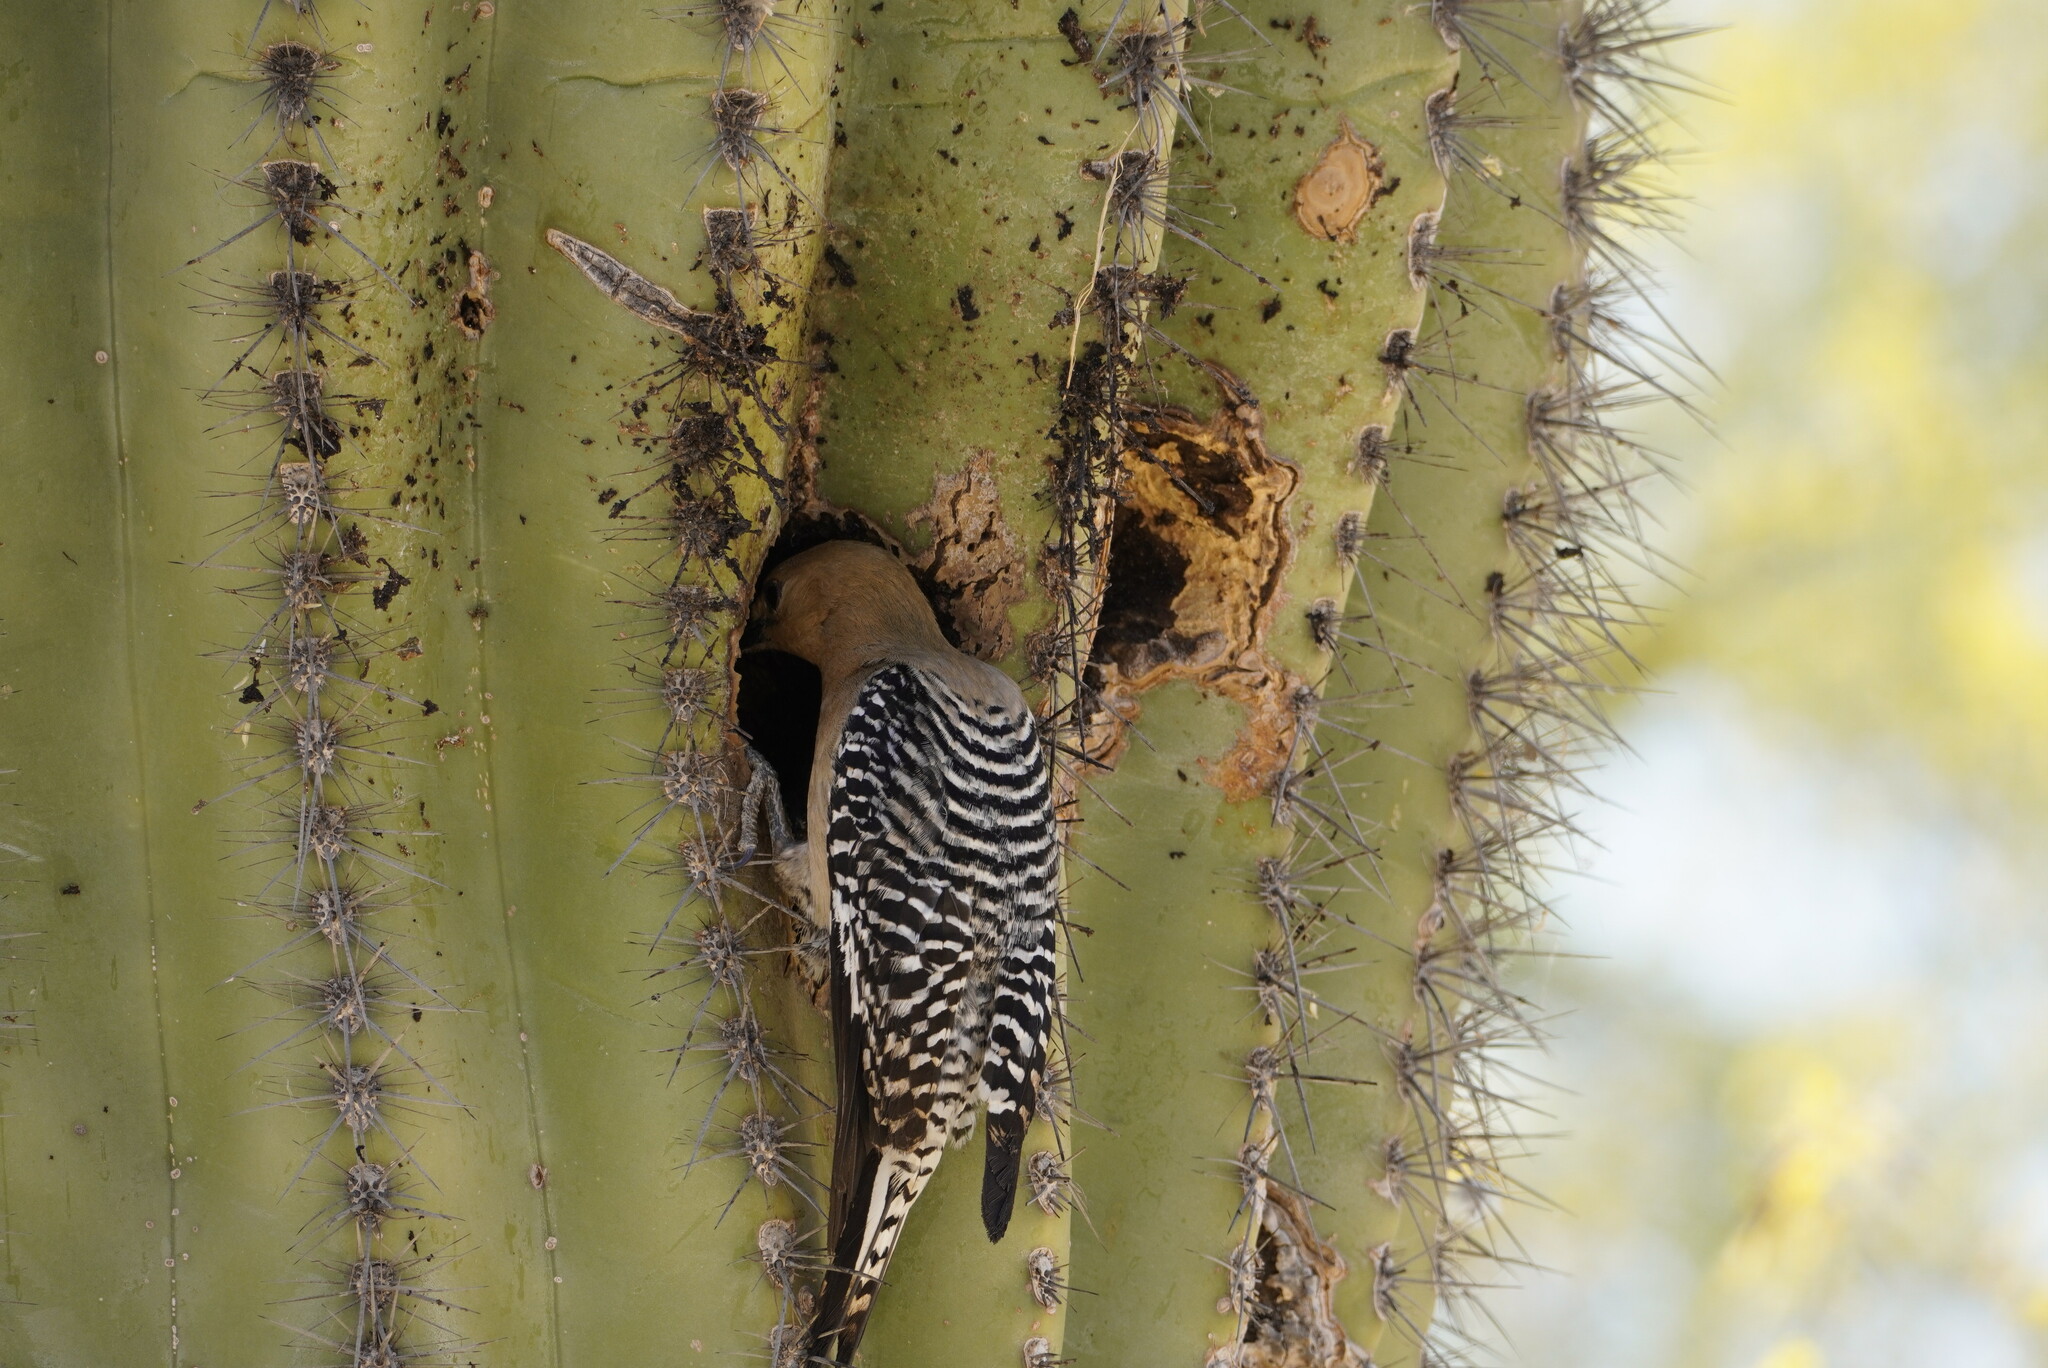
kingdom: Animalia
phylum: Chordata
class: Aves
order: Piciformes
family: Picidae
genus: Melanerpes
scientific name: Melanerpes uropygialis
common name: Gila woodpecker
